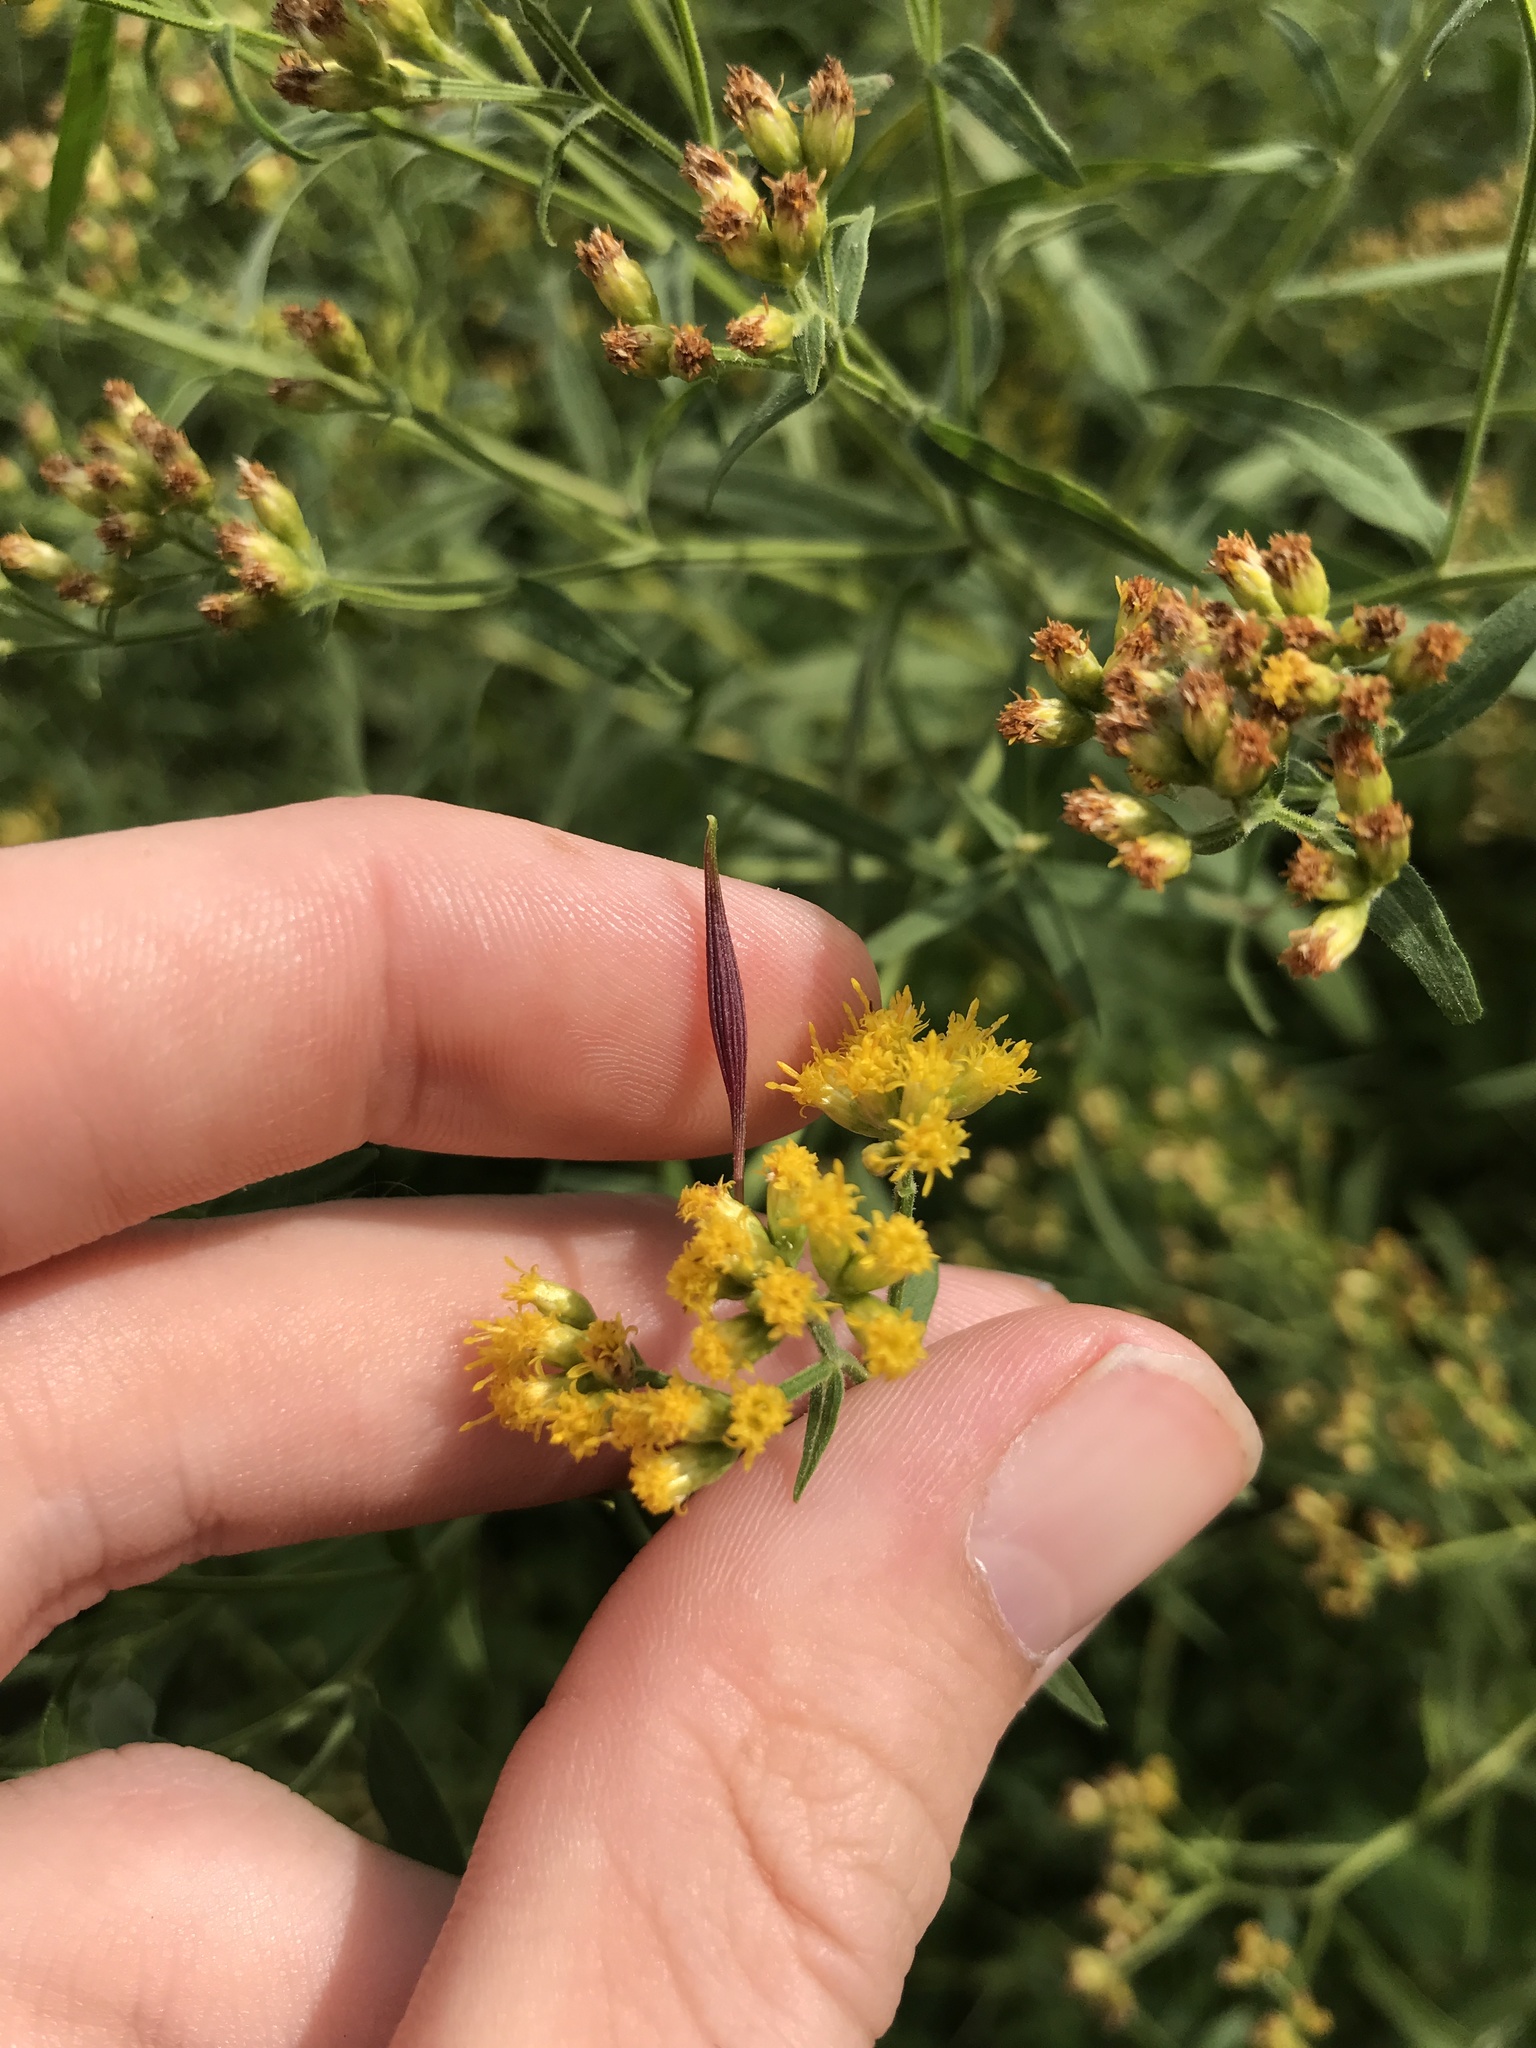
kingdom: Animalia
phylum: Arthropoda
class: Insecta
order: Diptera
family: Cecidomyiidae
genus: Rhopalomyia
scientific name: Rhopalomyia pedicellata
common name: Goldentop pedicellate gall midge
